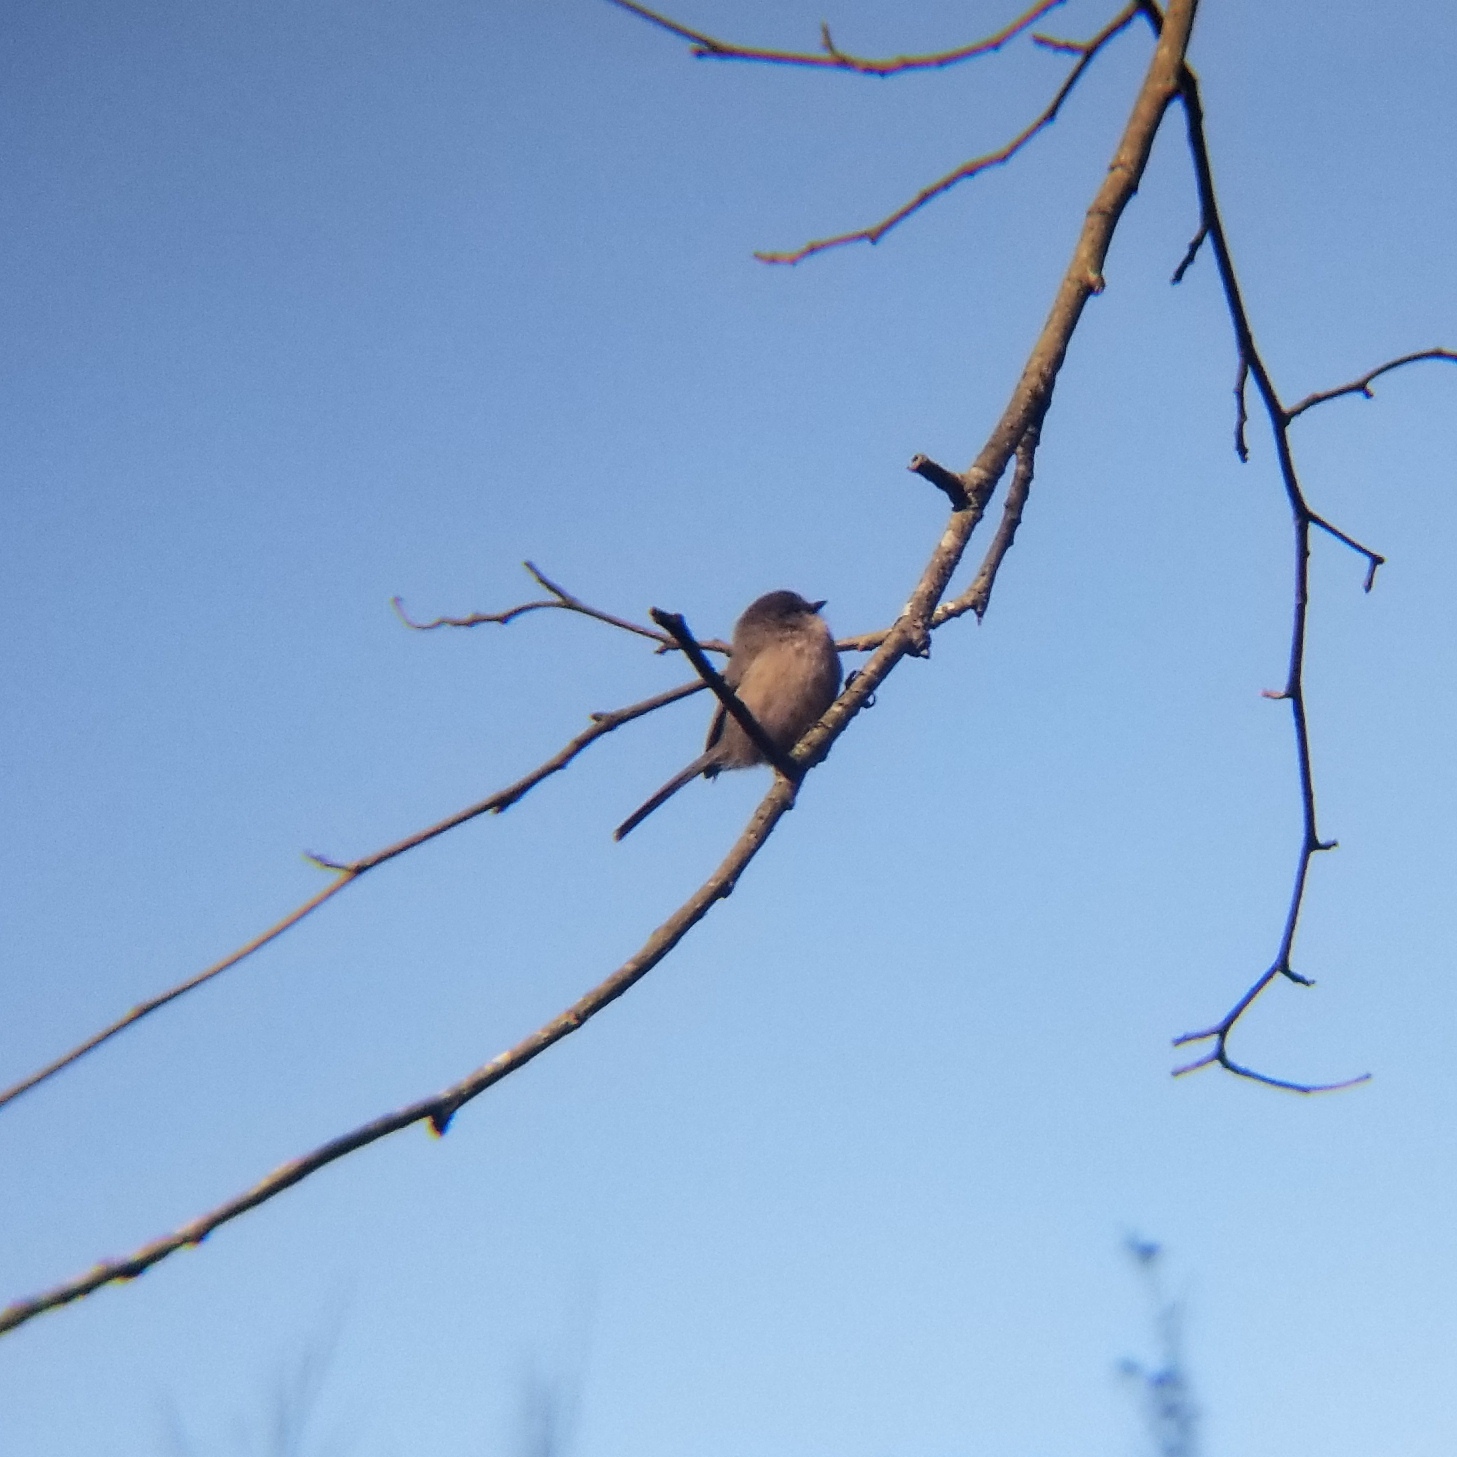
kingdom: Animalia
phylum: Chordata
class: Aves
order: Passeriformes
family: Aegithalidae
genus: Psaltriparus
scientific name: Psaltriparus minimus
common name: American bushtit
